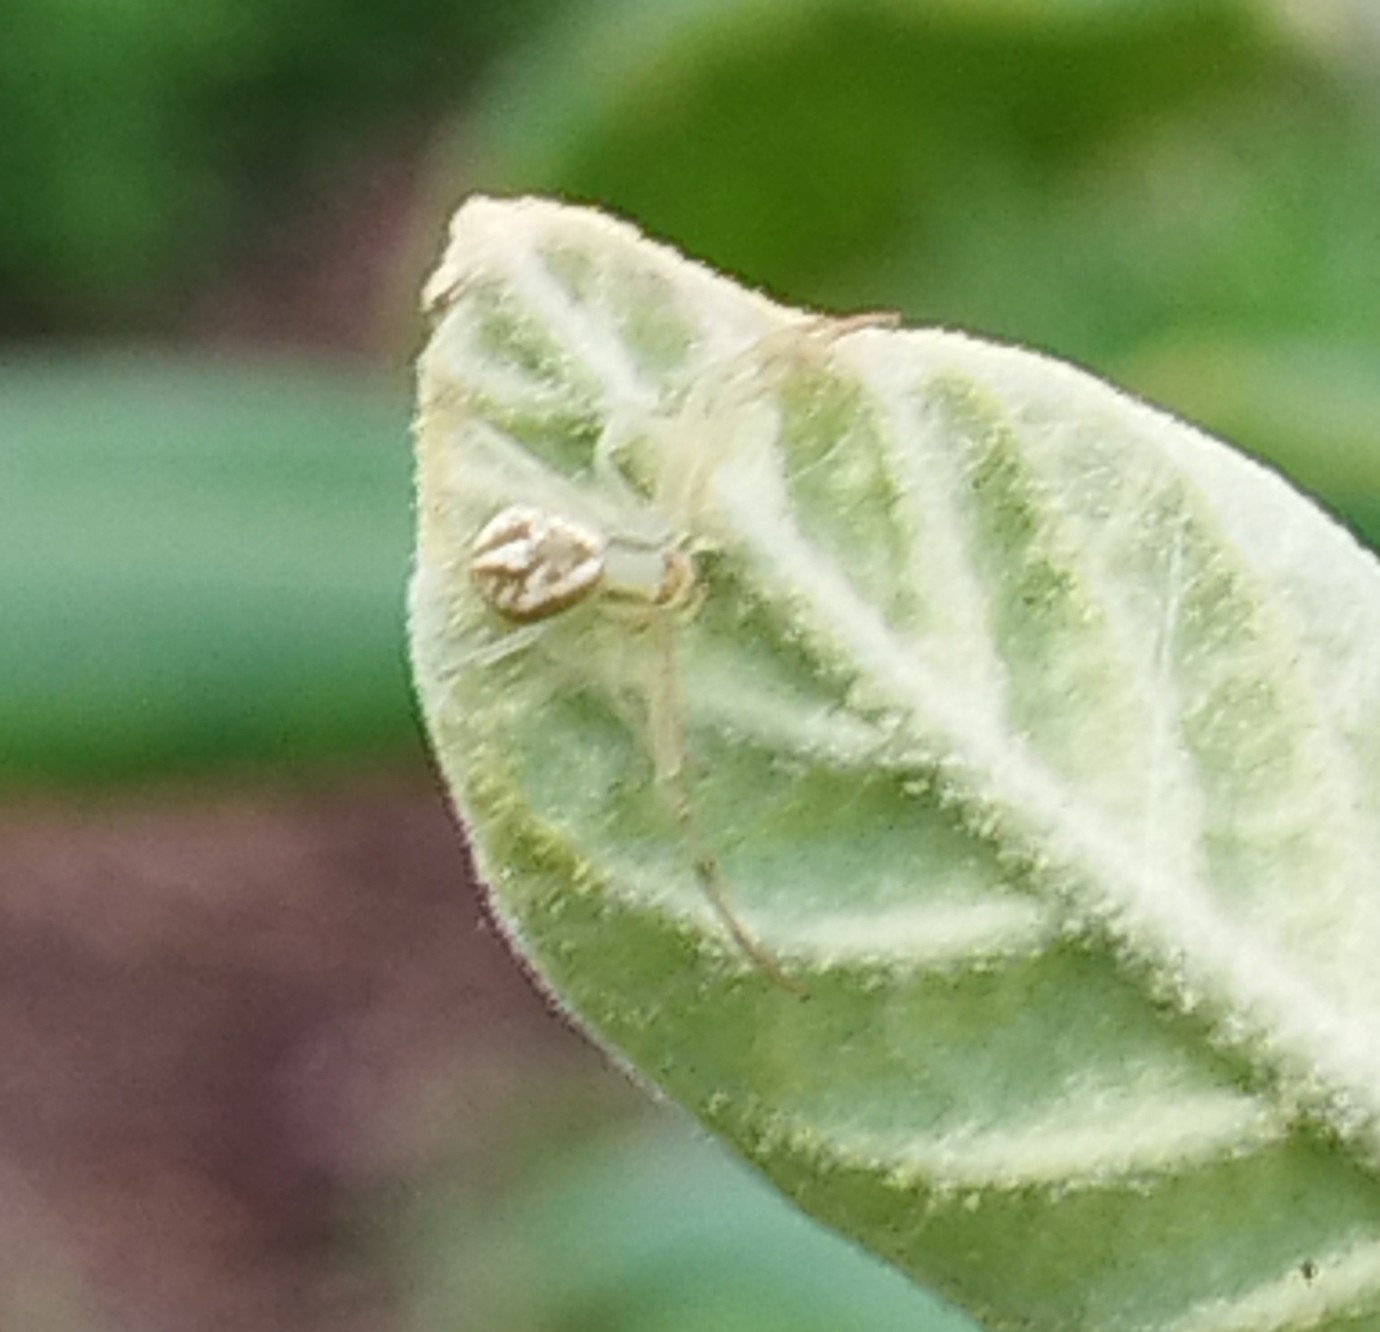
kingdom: Animalia
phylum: Arthropoda
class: Arachnida
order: Araneae
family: Thomisidae
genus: Misumenops
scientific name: Misumenops
